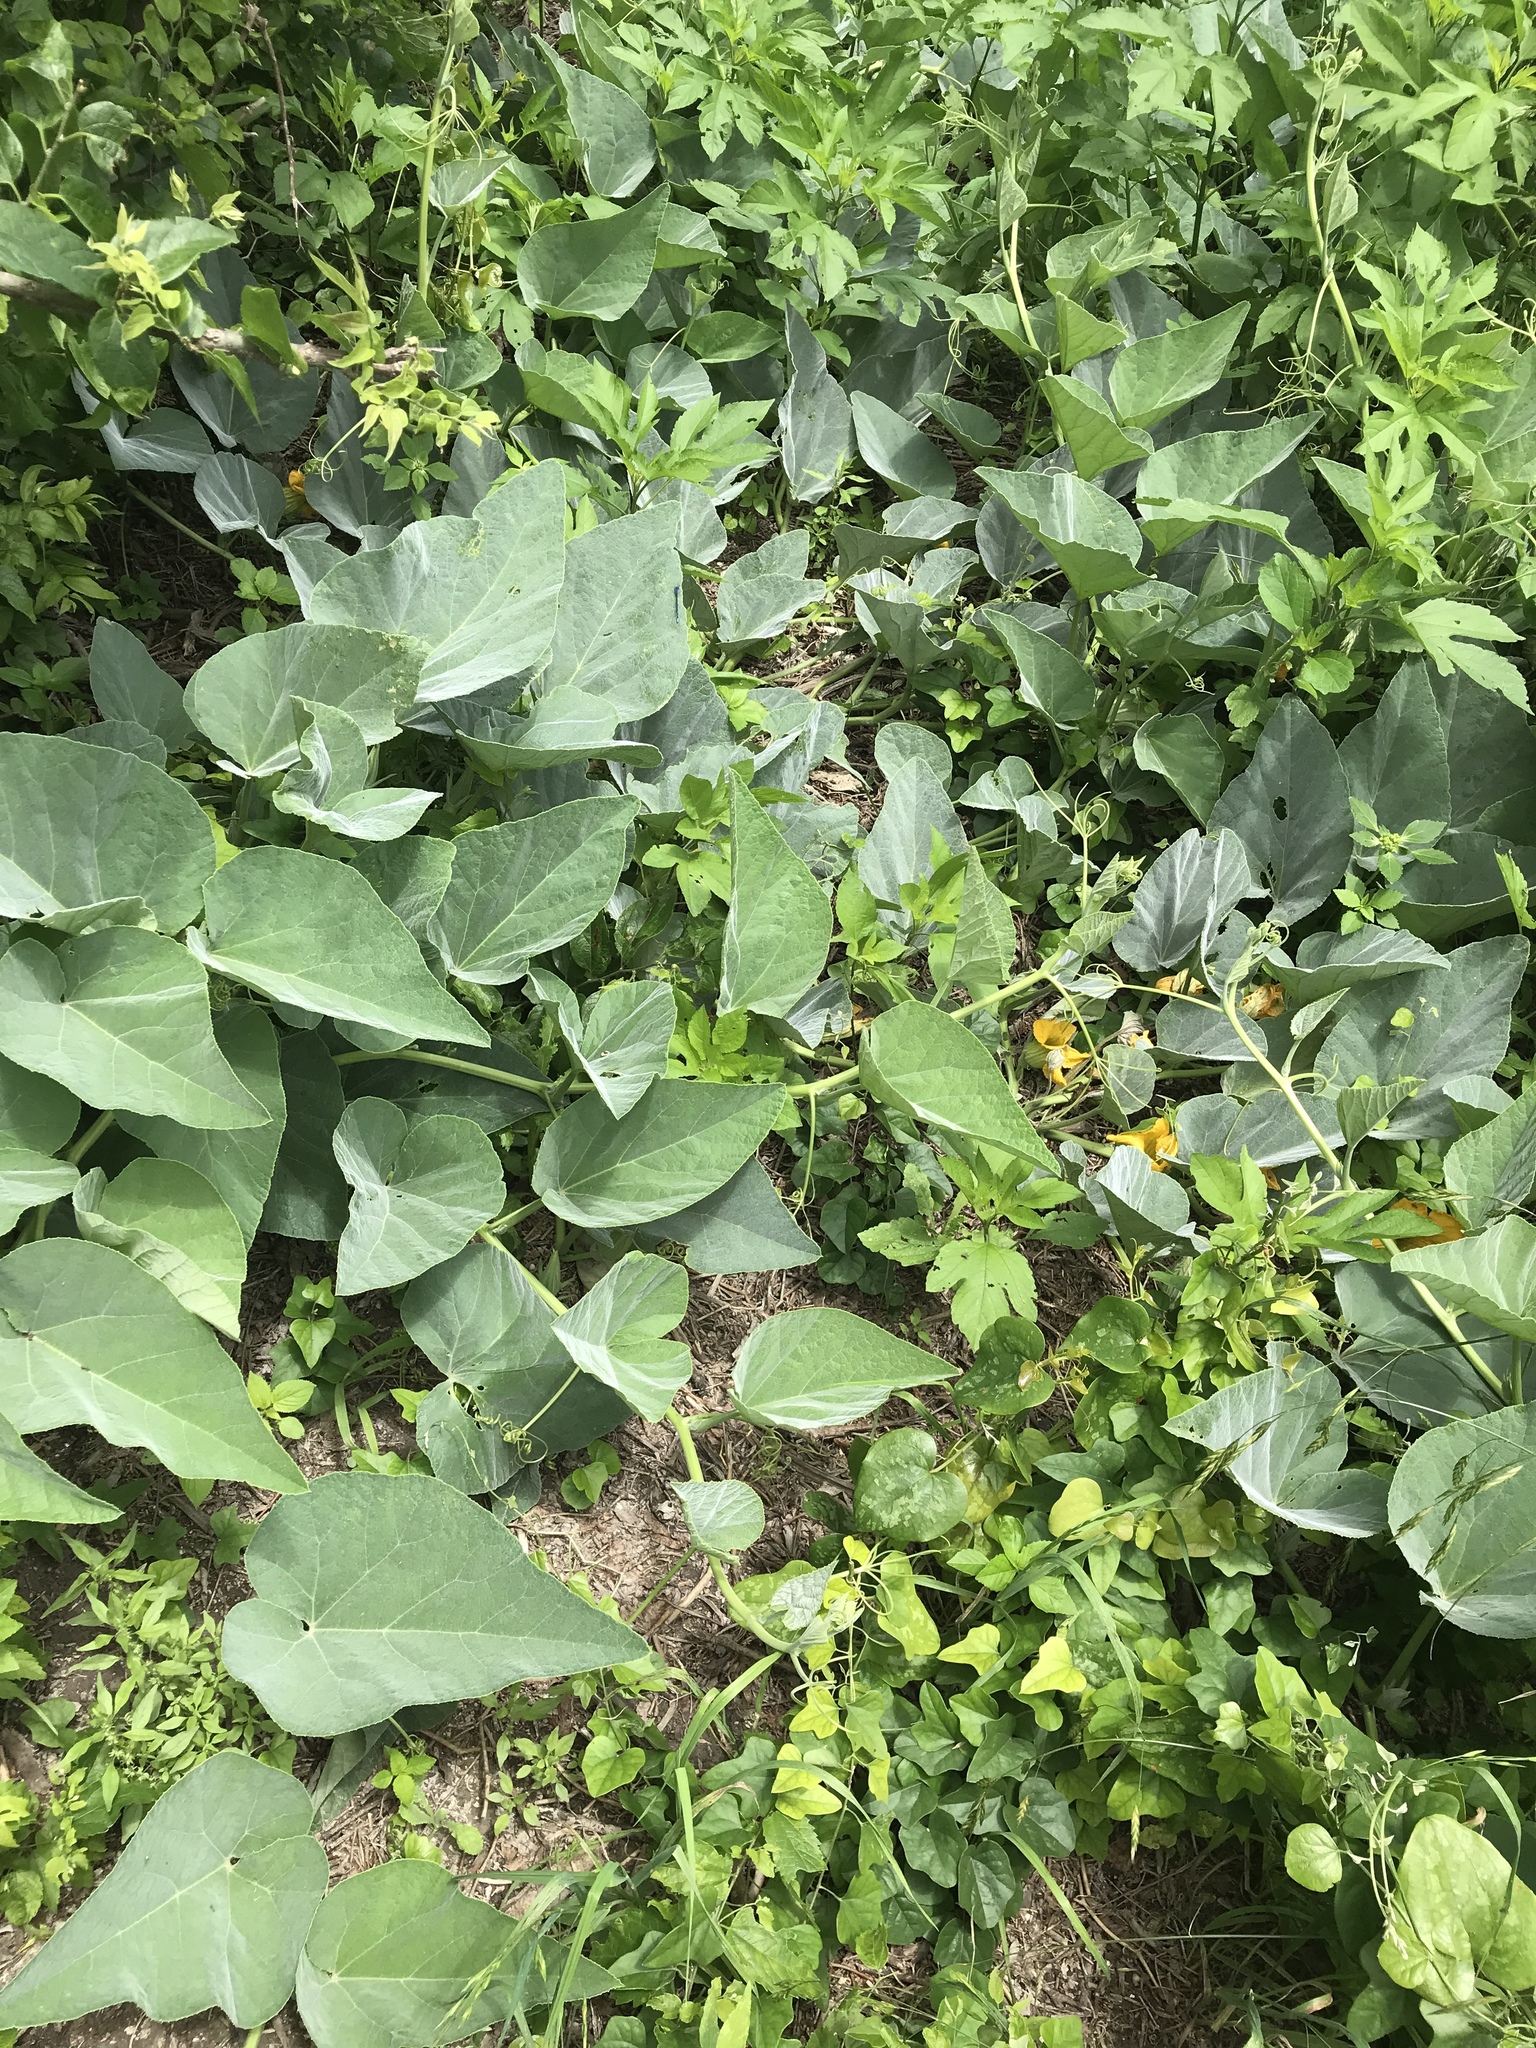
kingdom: Plantae
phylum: Tracheophyta
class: Magnoliopsida
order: Cucurbitales
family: Cucurbitaceae
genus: Cucurbita
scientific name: Cucurbita foetidissima
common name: Buffalo gourd
